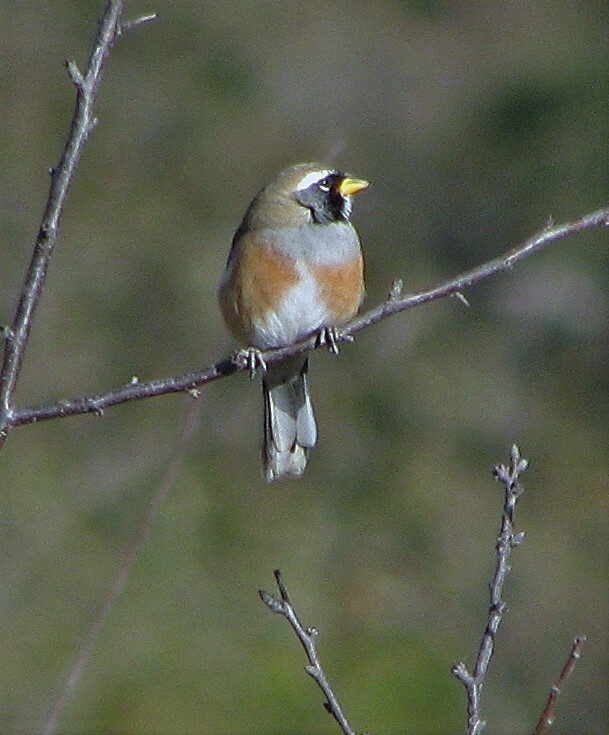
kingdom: Animalia
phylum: Chordata
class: Aves
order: Passeriformes
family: Thraupidae
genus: Saltatricula
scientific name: Saltatricula multicolor
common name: Many-colored chaco finch
